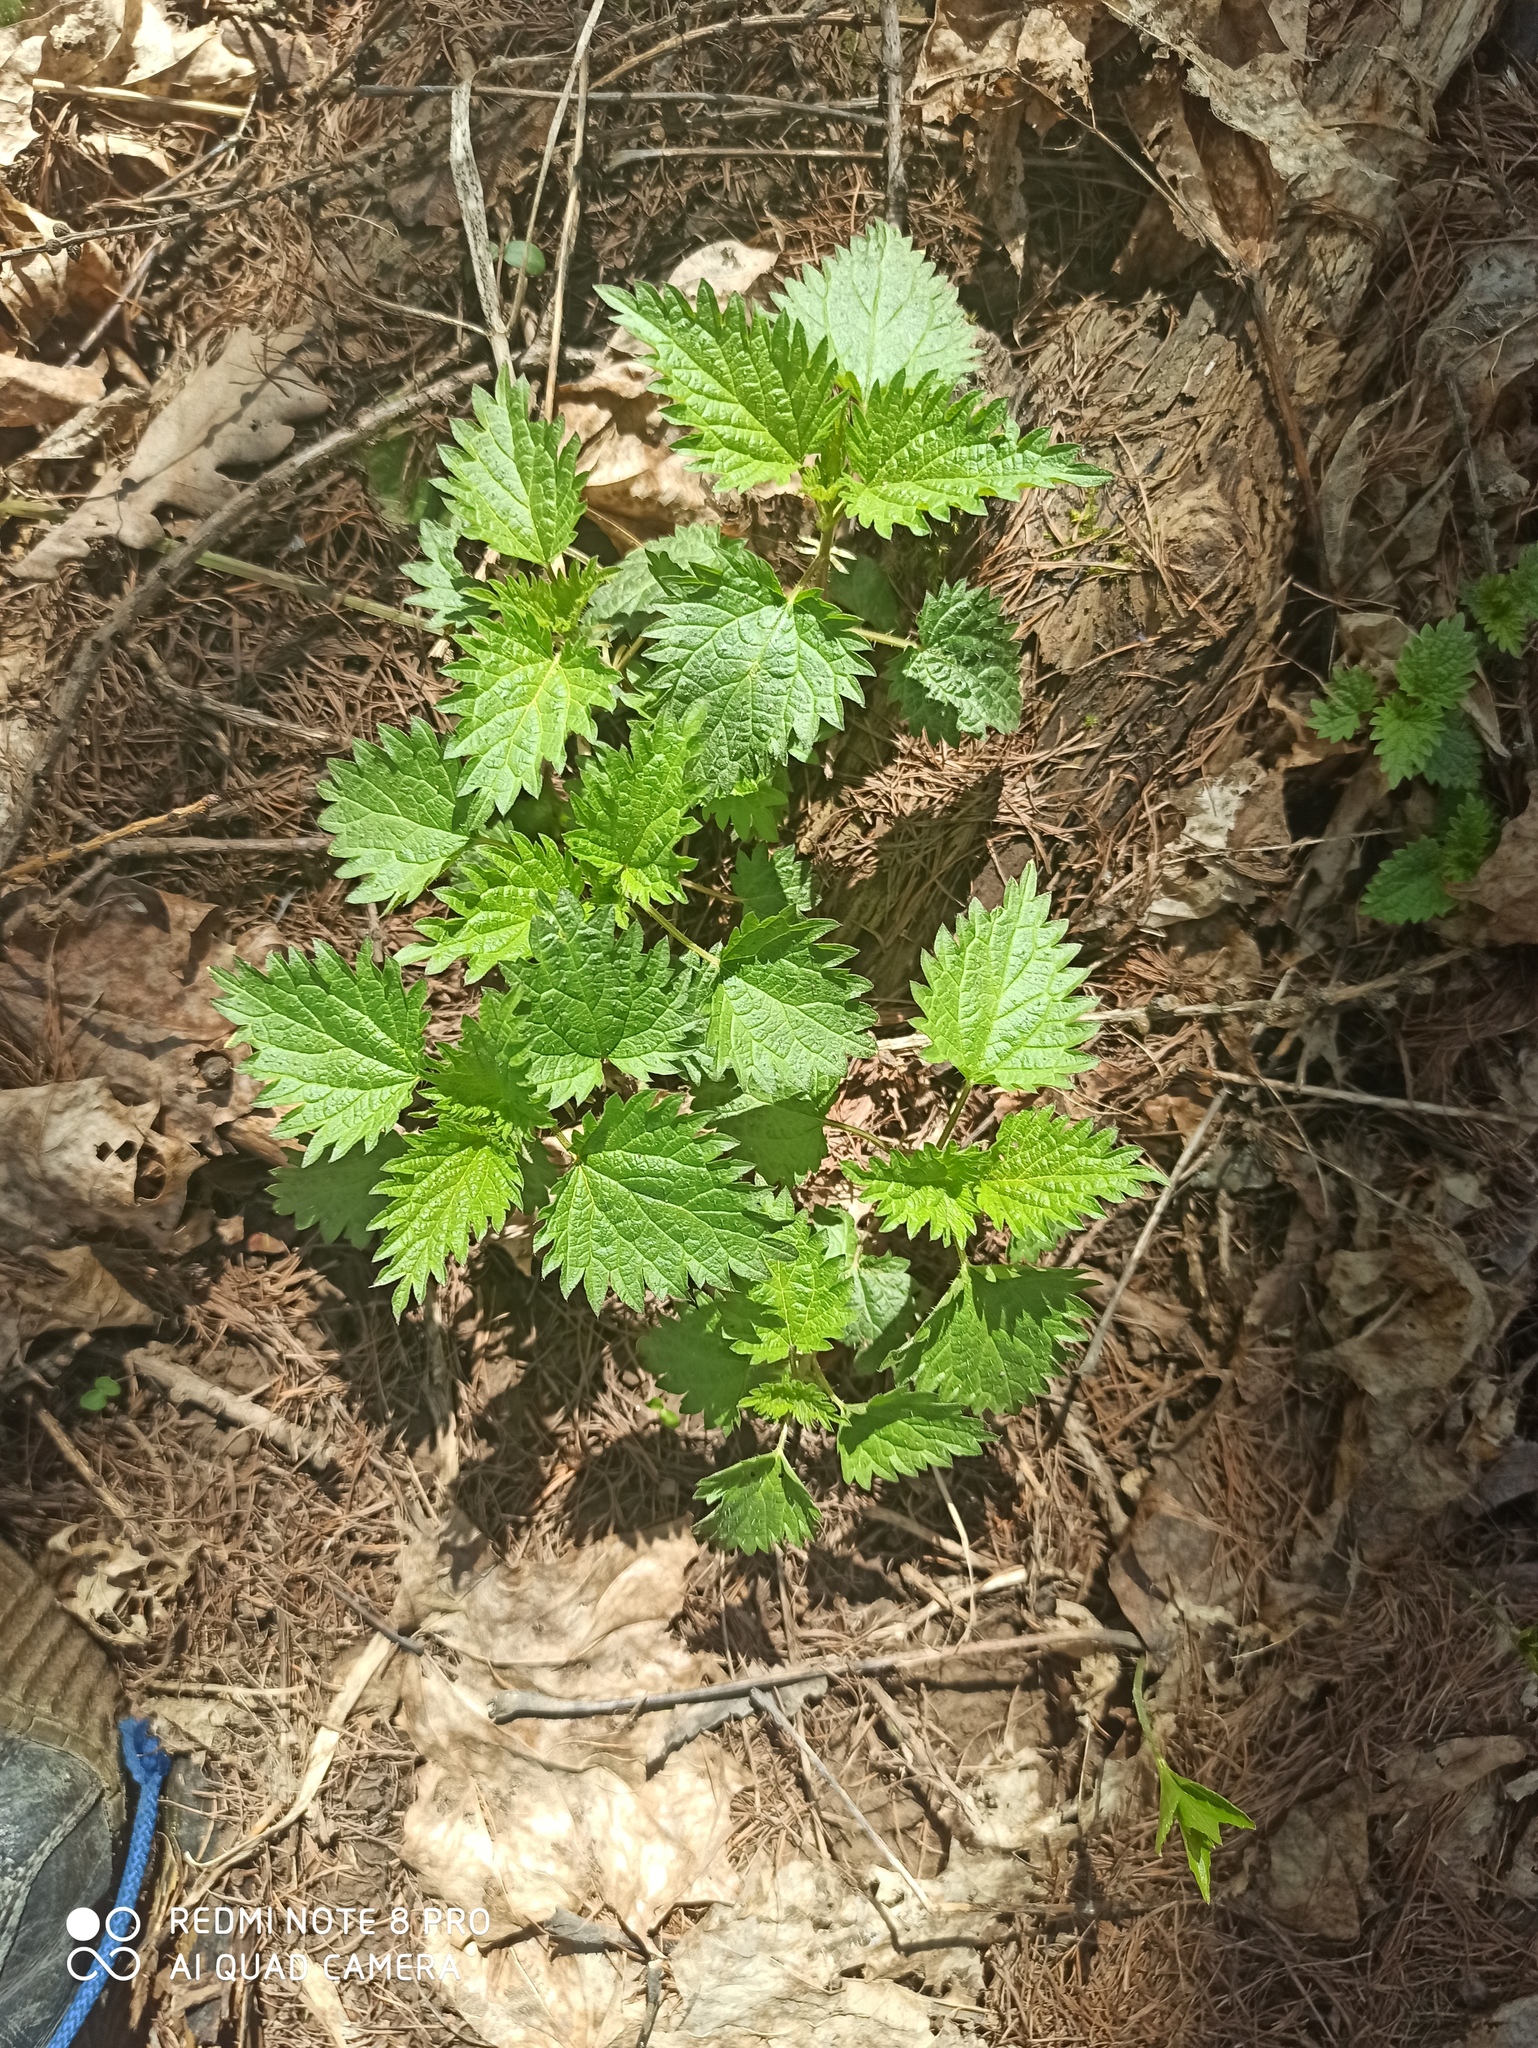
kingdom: Plantae
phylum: Tracheophyta
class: Magnoliopsida
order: Rosales
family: Urticaceae
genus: Urtica
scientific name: Urtica dioica
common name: Common nettle
